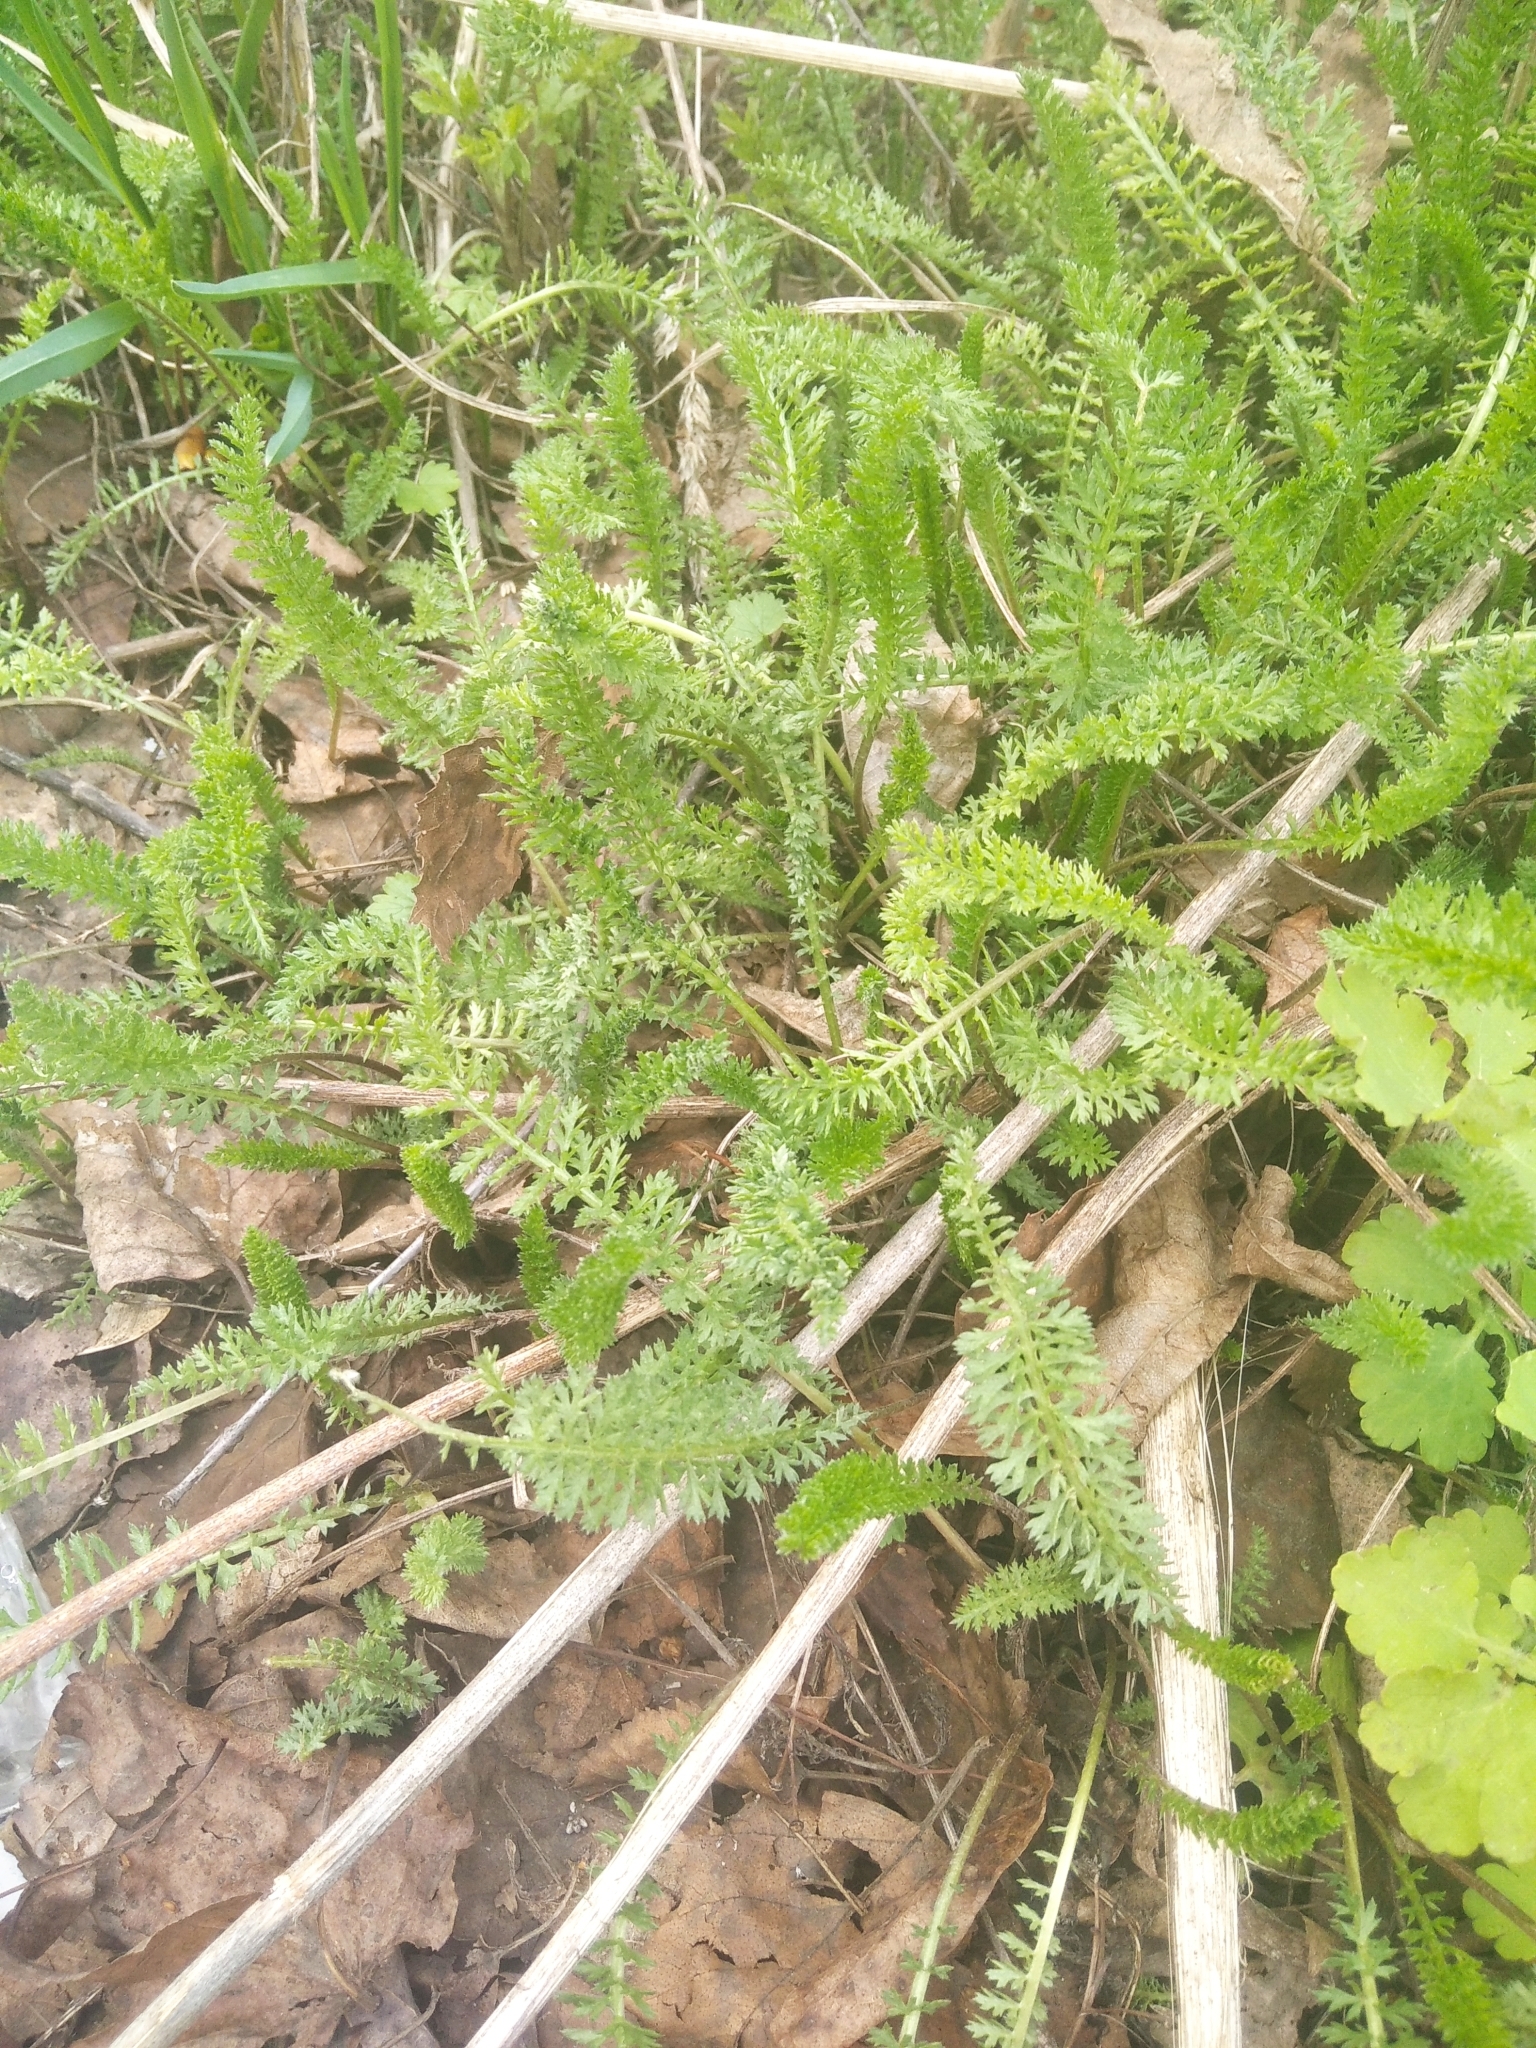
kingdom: Plantae
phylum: Tracheophyta
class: Magnoliopsida
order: Asterales
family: Asteraceae
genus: Achillea
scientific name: Achillea millefolium
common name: Yarrow
